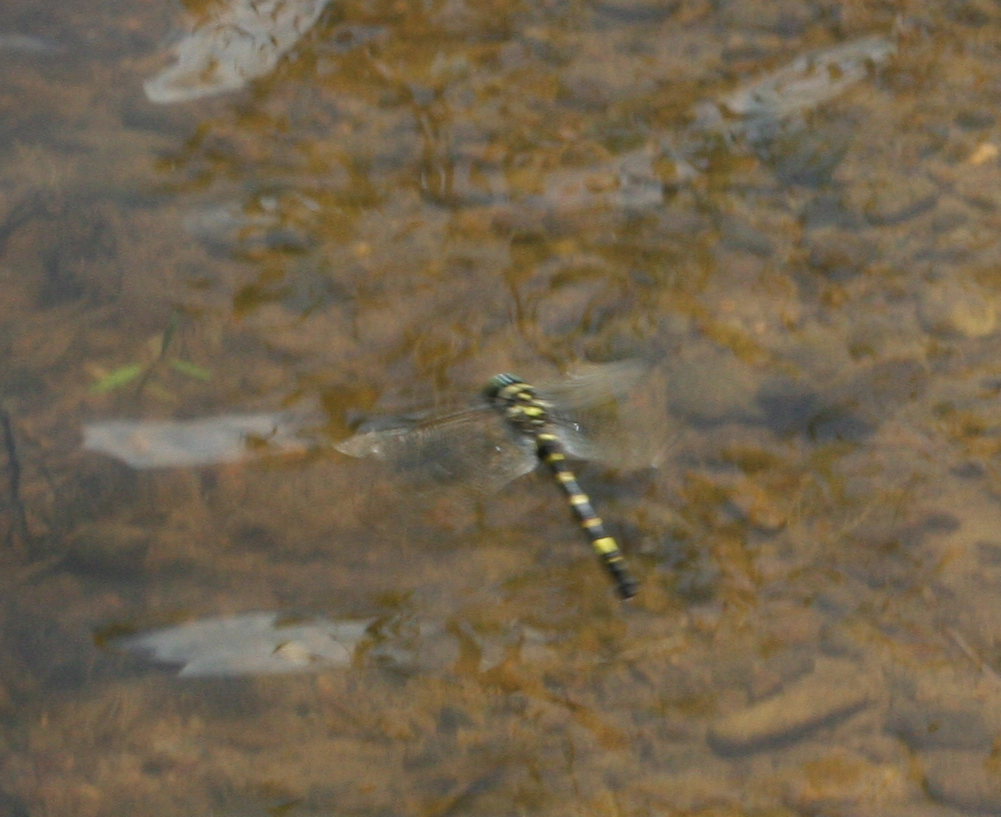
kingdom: Animalia
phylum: Arthropoda
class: Insecta
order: Odonata
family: Macromiidae
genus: Epophthalmia
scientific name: Epophthalmia elegans
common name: Regal pond cruiser
